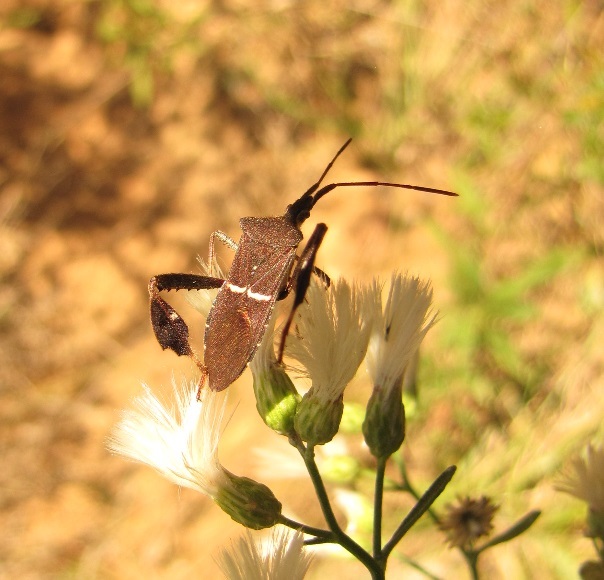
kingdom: Animalia
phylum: Arthropoda
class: Insecta
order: Hemiptera
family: Coreidae
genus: Leptoglossus
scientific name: Leptoglossus phyllopus
